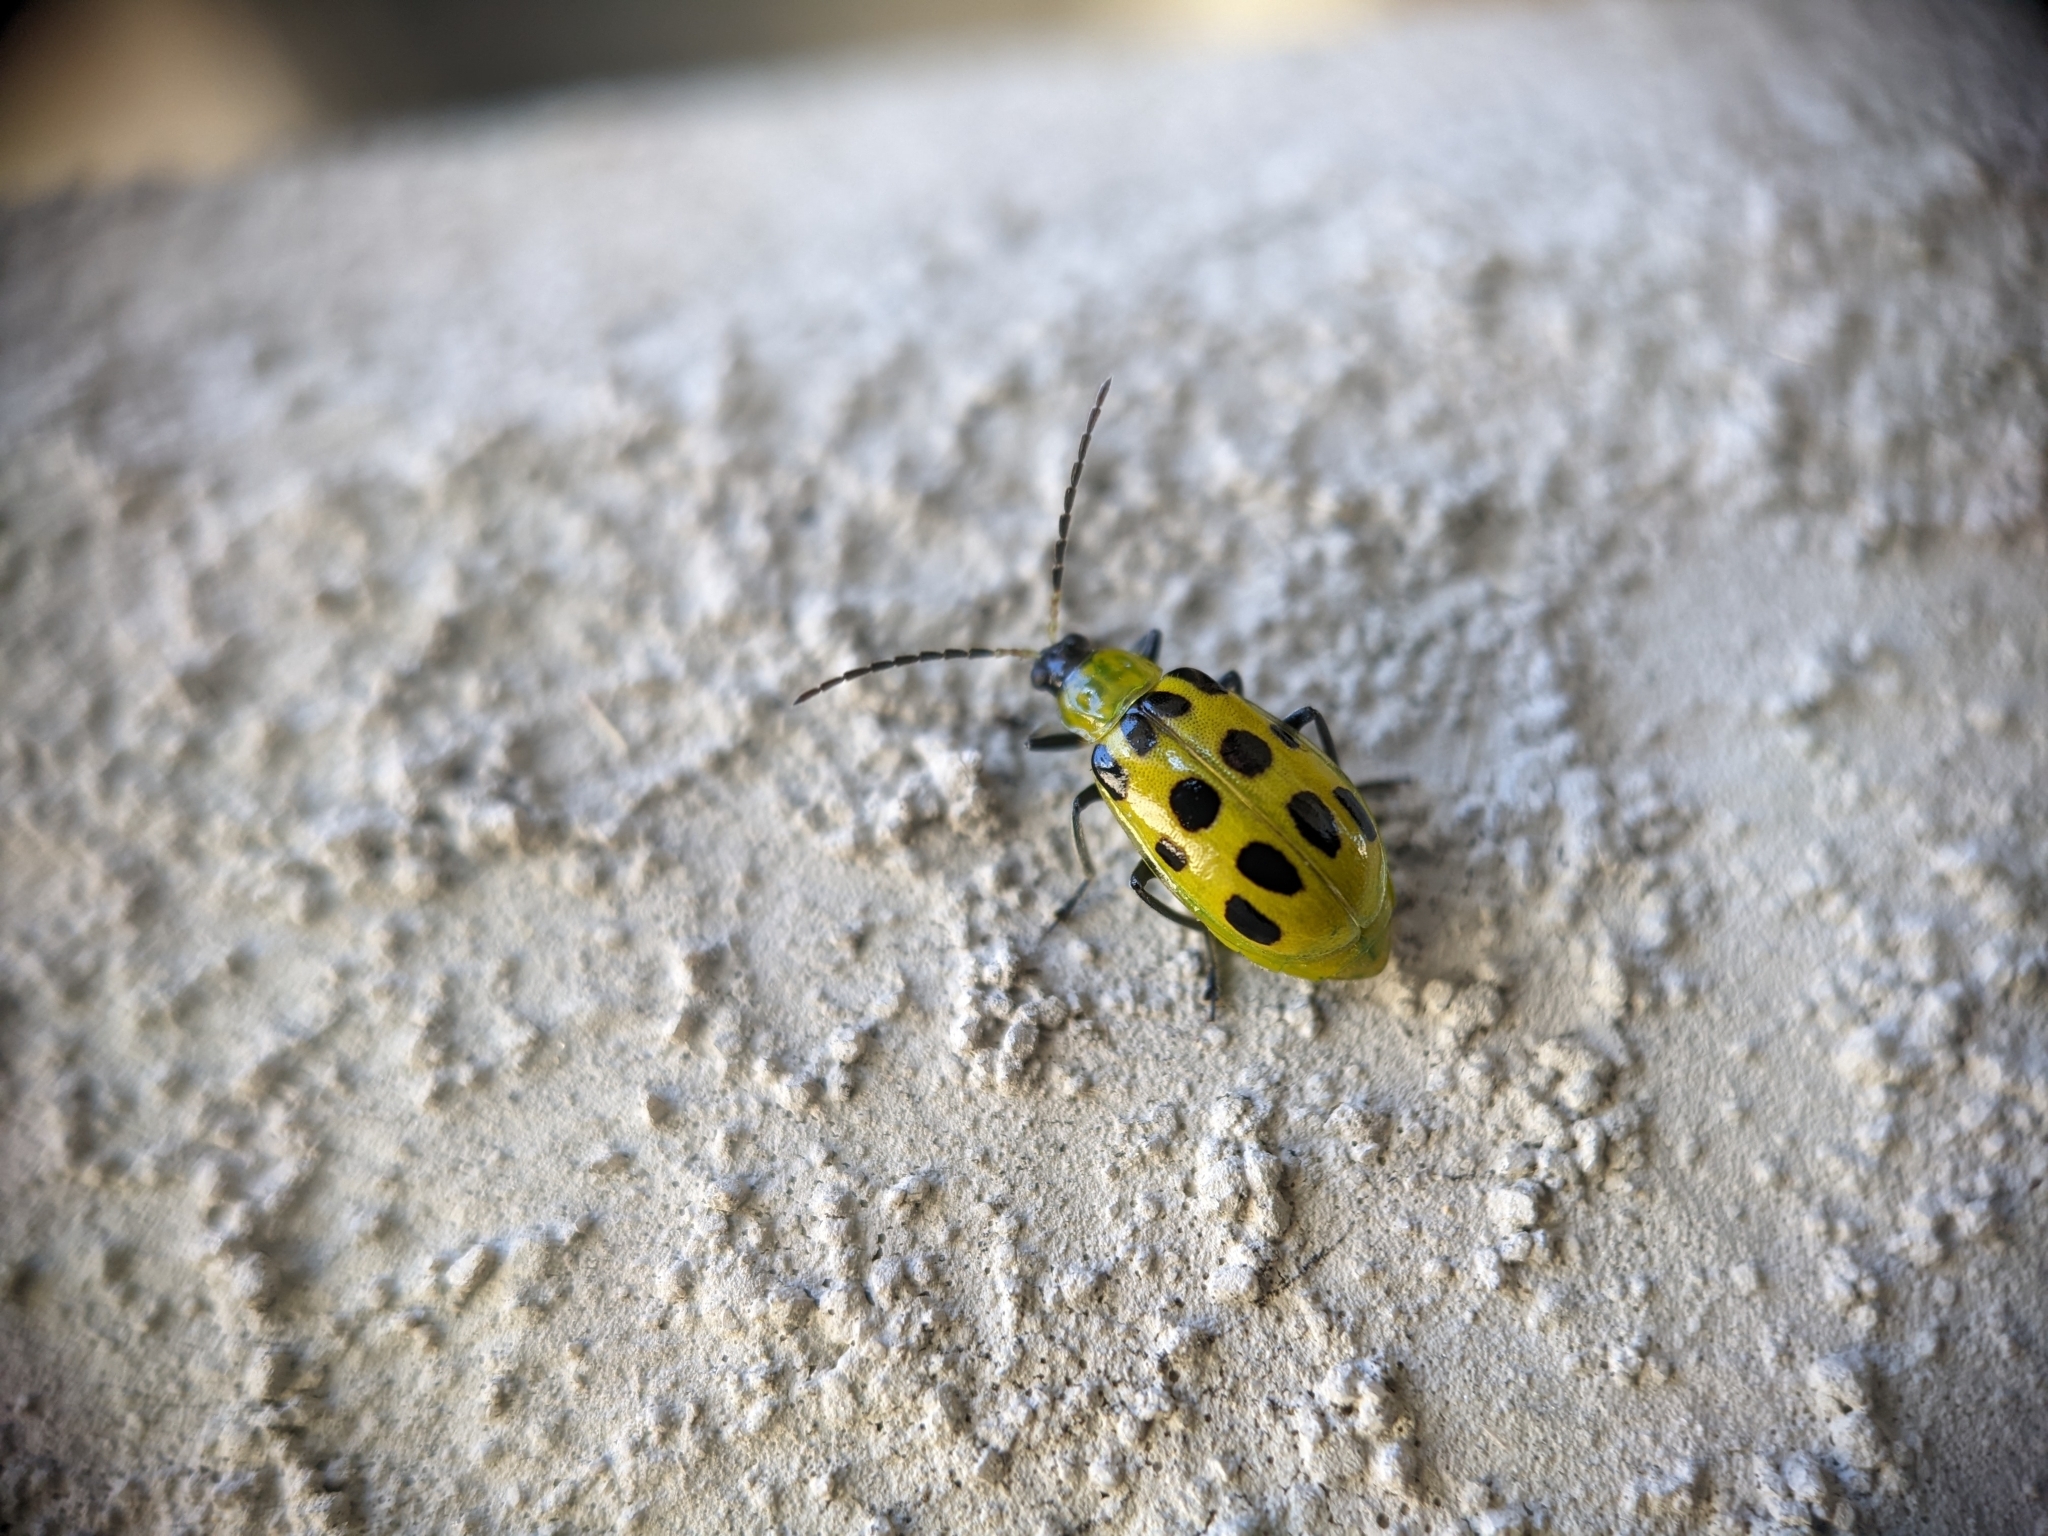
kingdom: Animalia
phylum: Arthropoda
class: Insecta
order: Coleoptera
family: Chrysomelidae
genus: Diabrotica
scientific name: Diabrotica undecimpunctata
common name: Spotted cucumber beetle
